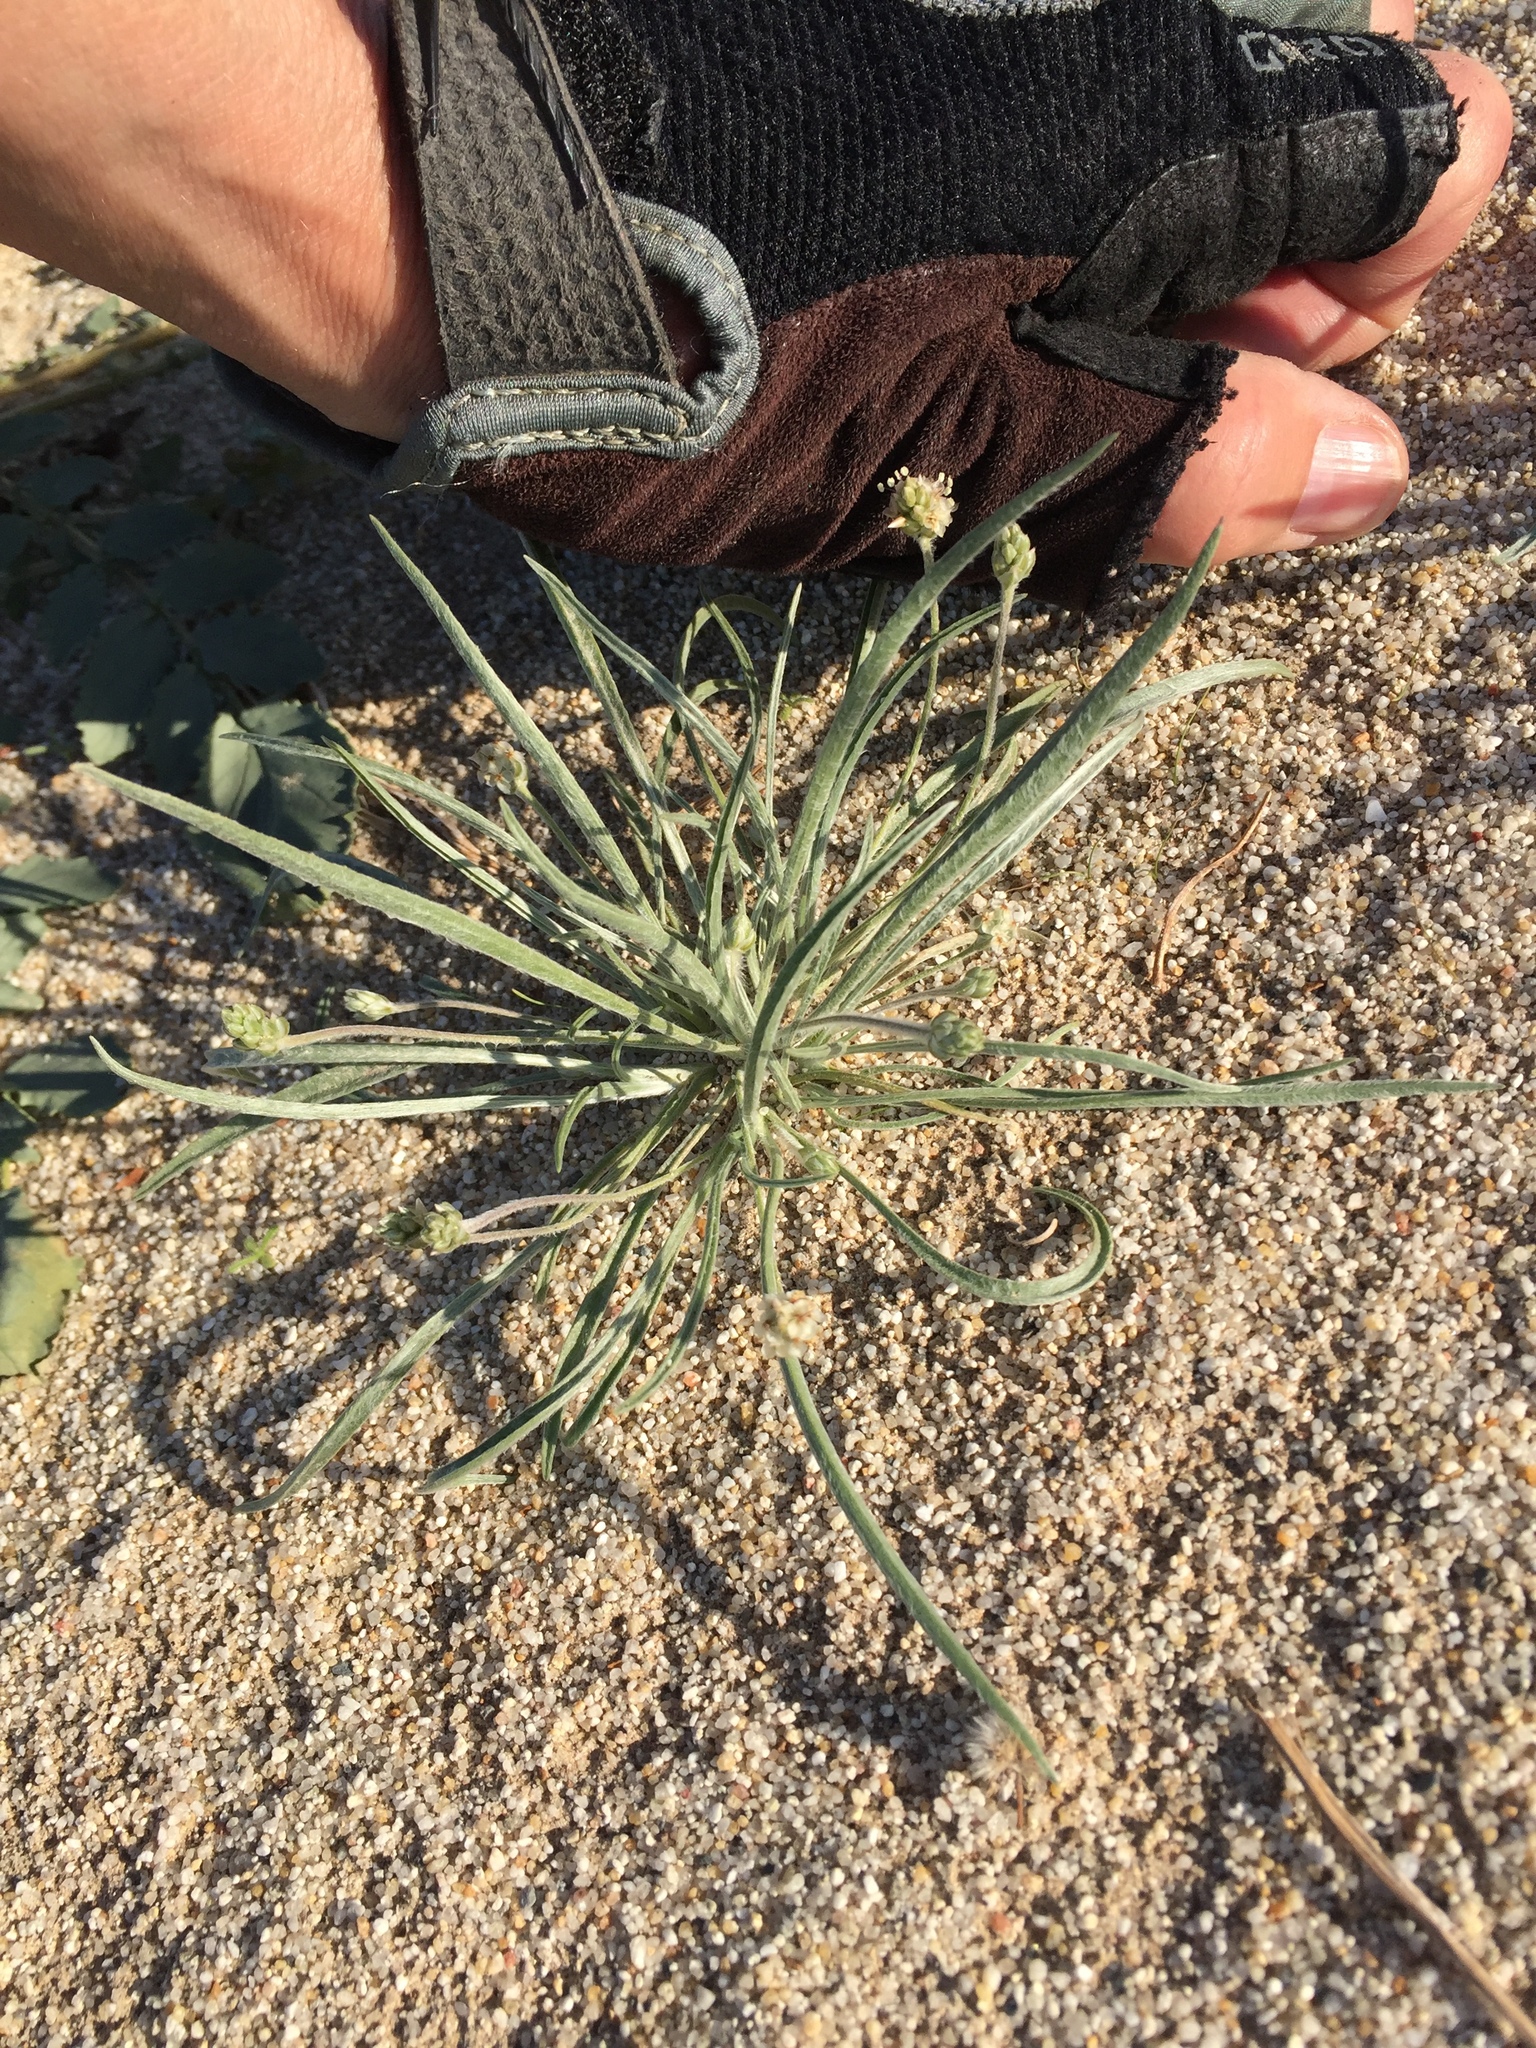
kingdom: Plantae
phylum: Tracheophyta
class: Magnoliopsida
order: Lamiales
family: Plantaginaceae
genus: Plantago
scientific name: Plantago ovata
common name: Blond plantain
